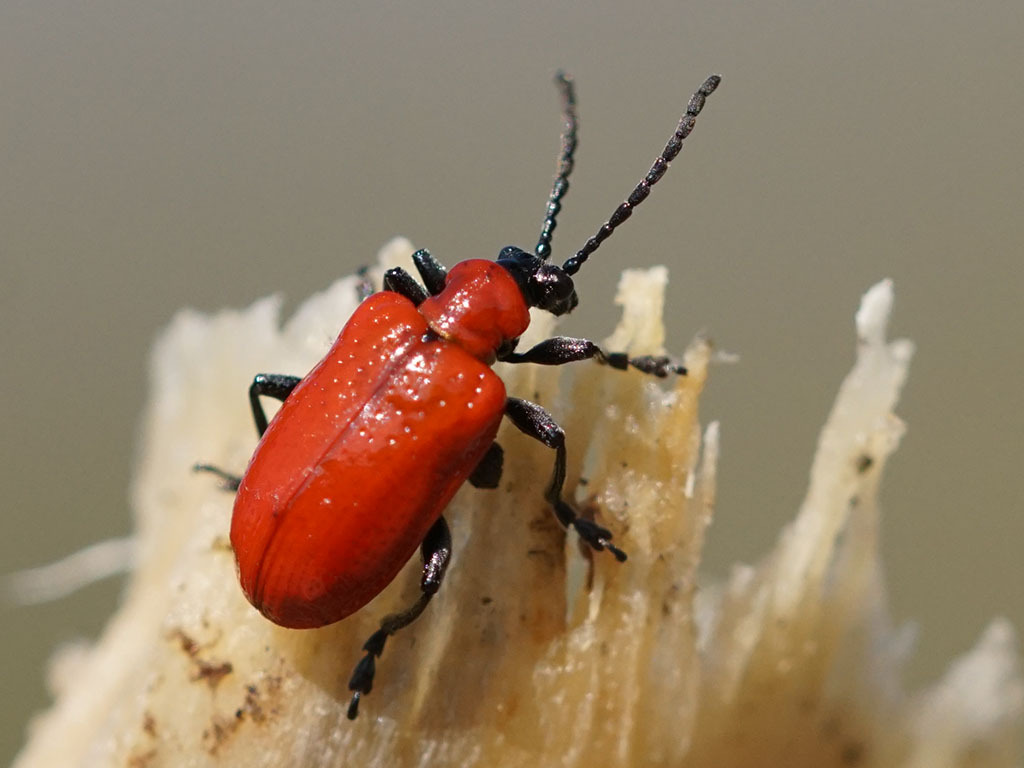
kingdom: Animalia
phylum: Arthropoda
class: Insecta
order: Coleoptera
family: Chrysomelidae
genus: Lilioceris
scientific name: Lilioceris lilii
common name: Lily beetle
